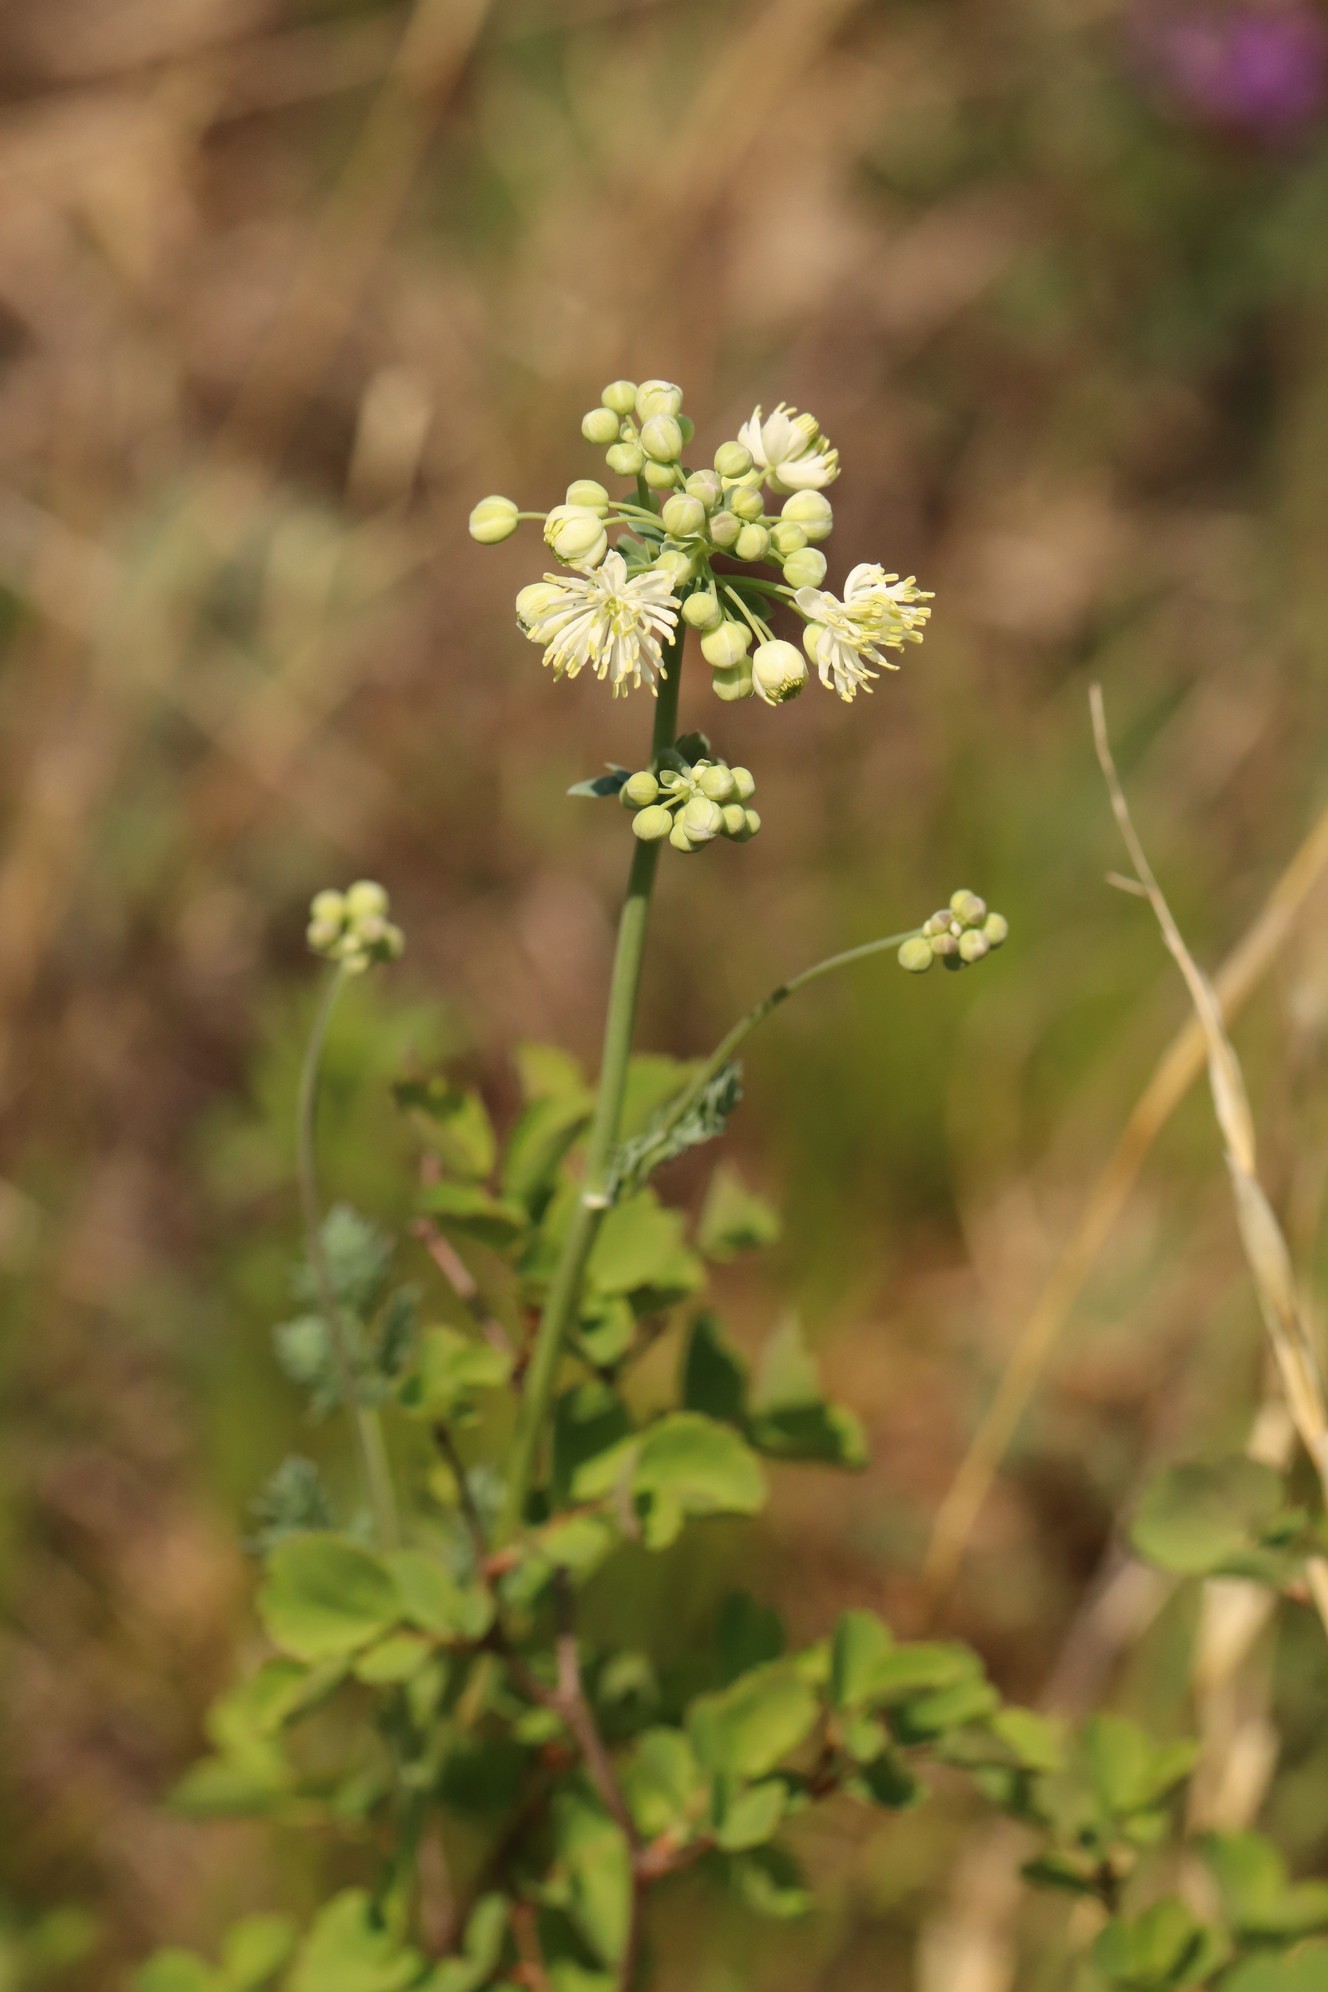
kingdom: Plantae
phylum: Tracheophyta
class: Magnoliopsida
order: Ranunculales
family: Ranunculaceae
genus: Thalictrum
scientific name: Thalictrum petaloideum
